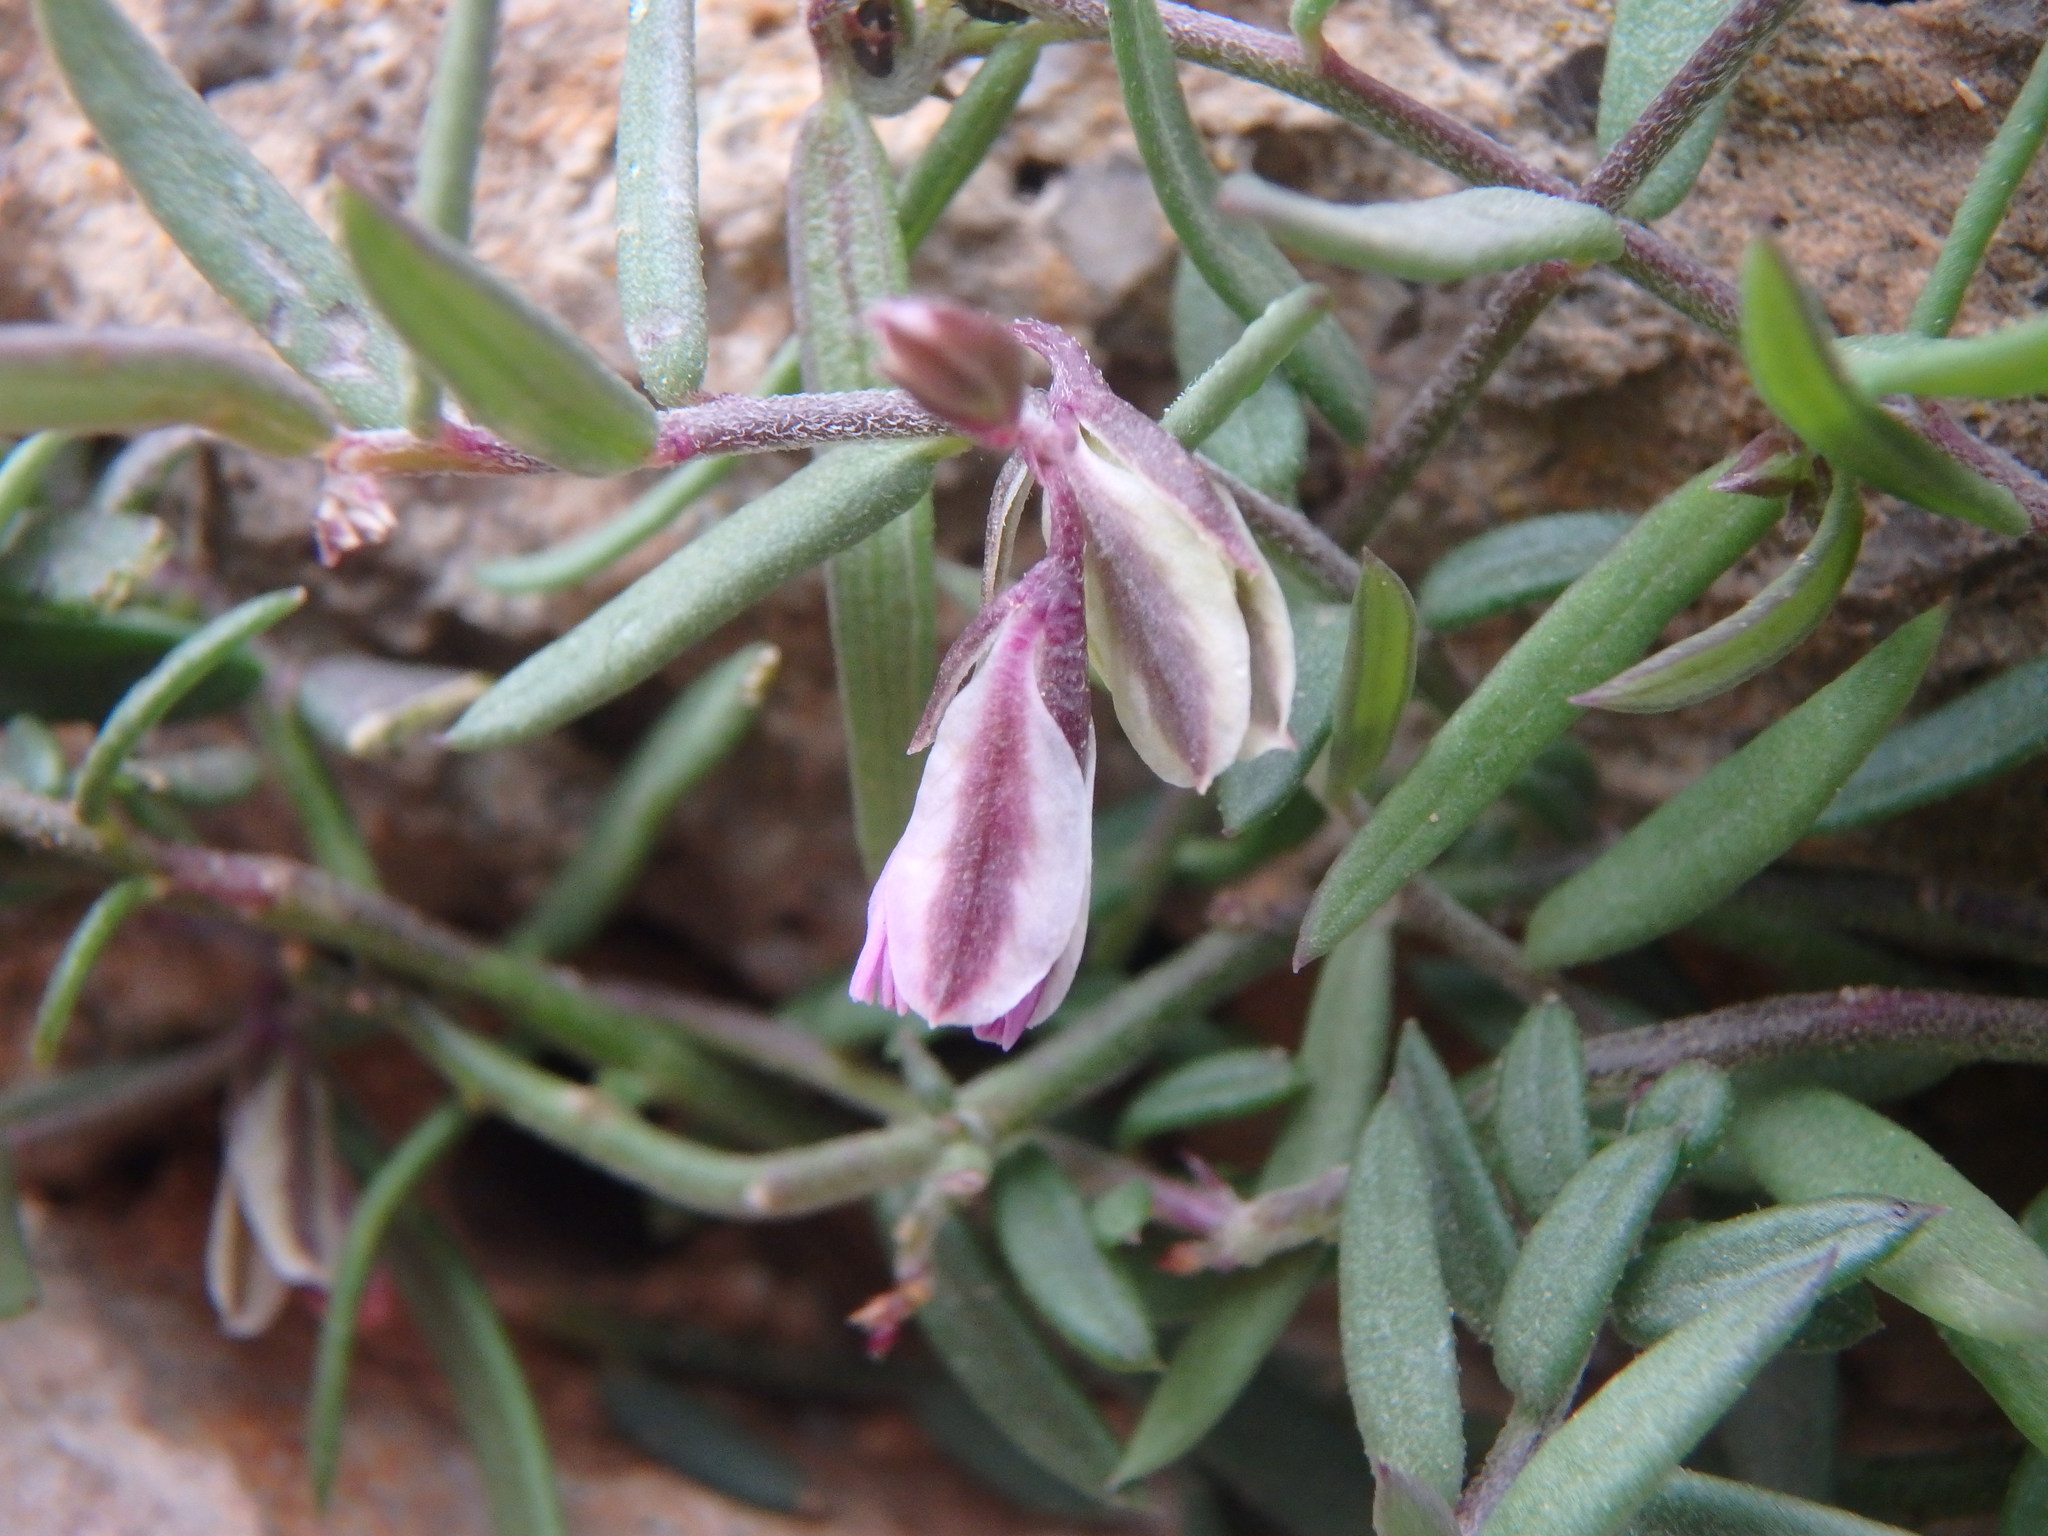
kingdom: Plantae
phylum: Tracheophyta
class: Magnoliopsida
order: Fabales
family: Polygalaceae
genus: Polygala
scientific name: Polygala rupestris
